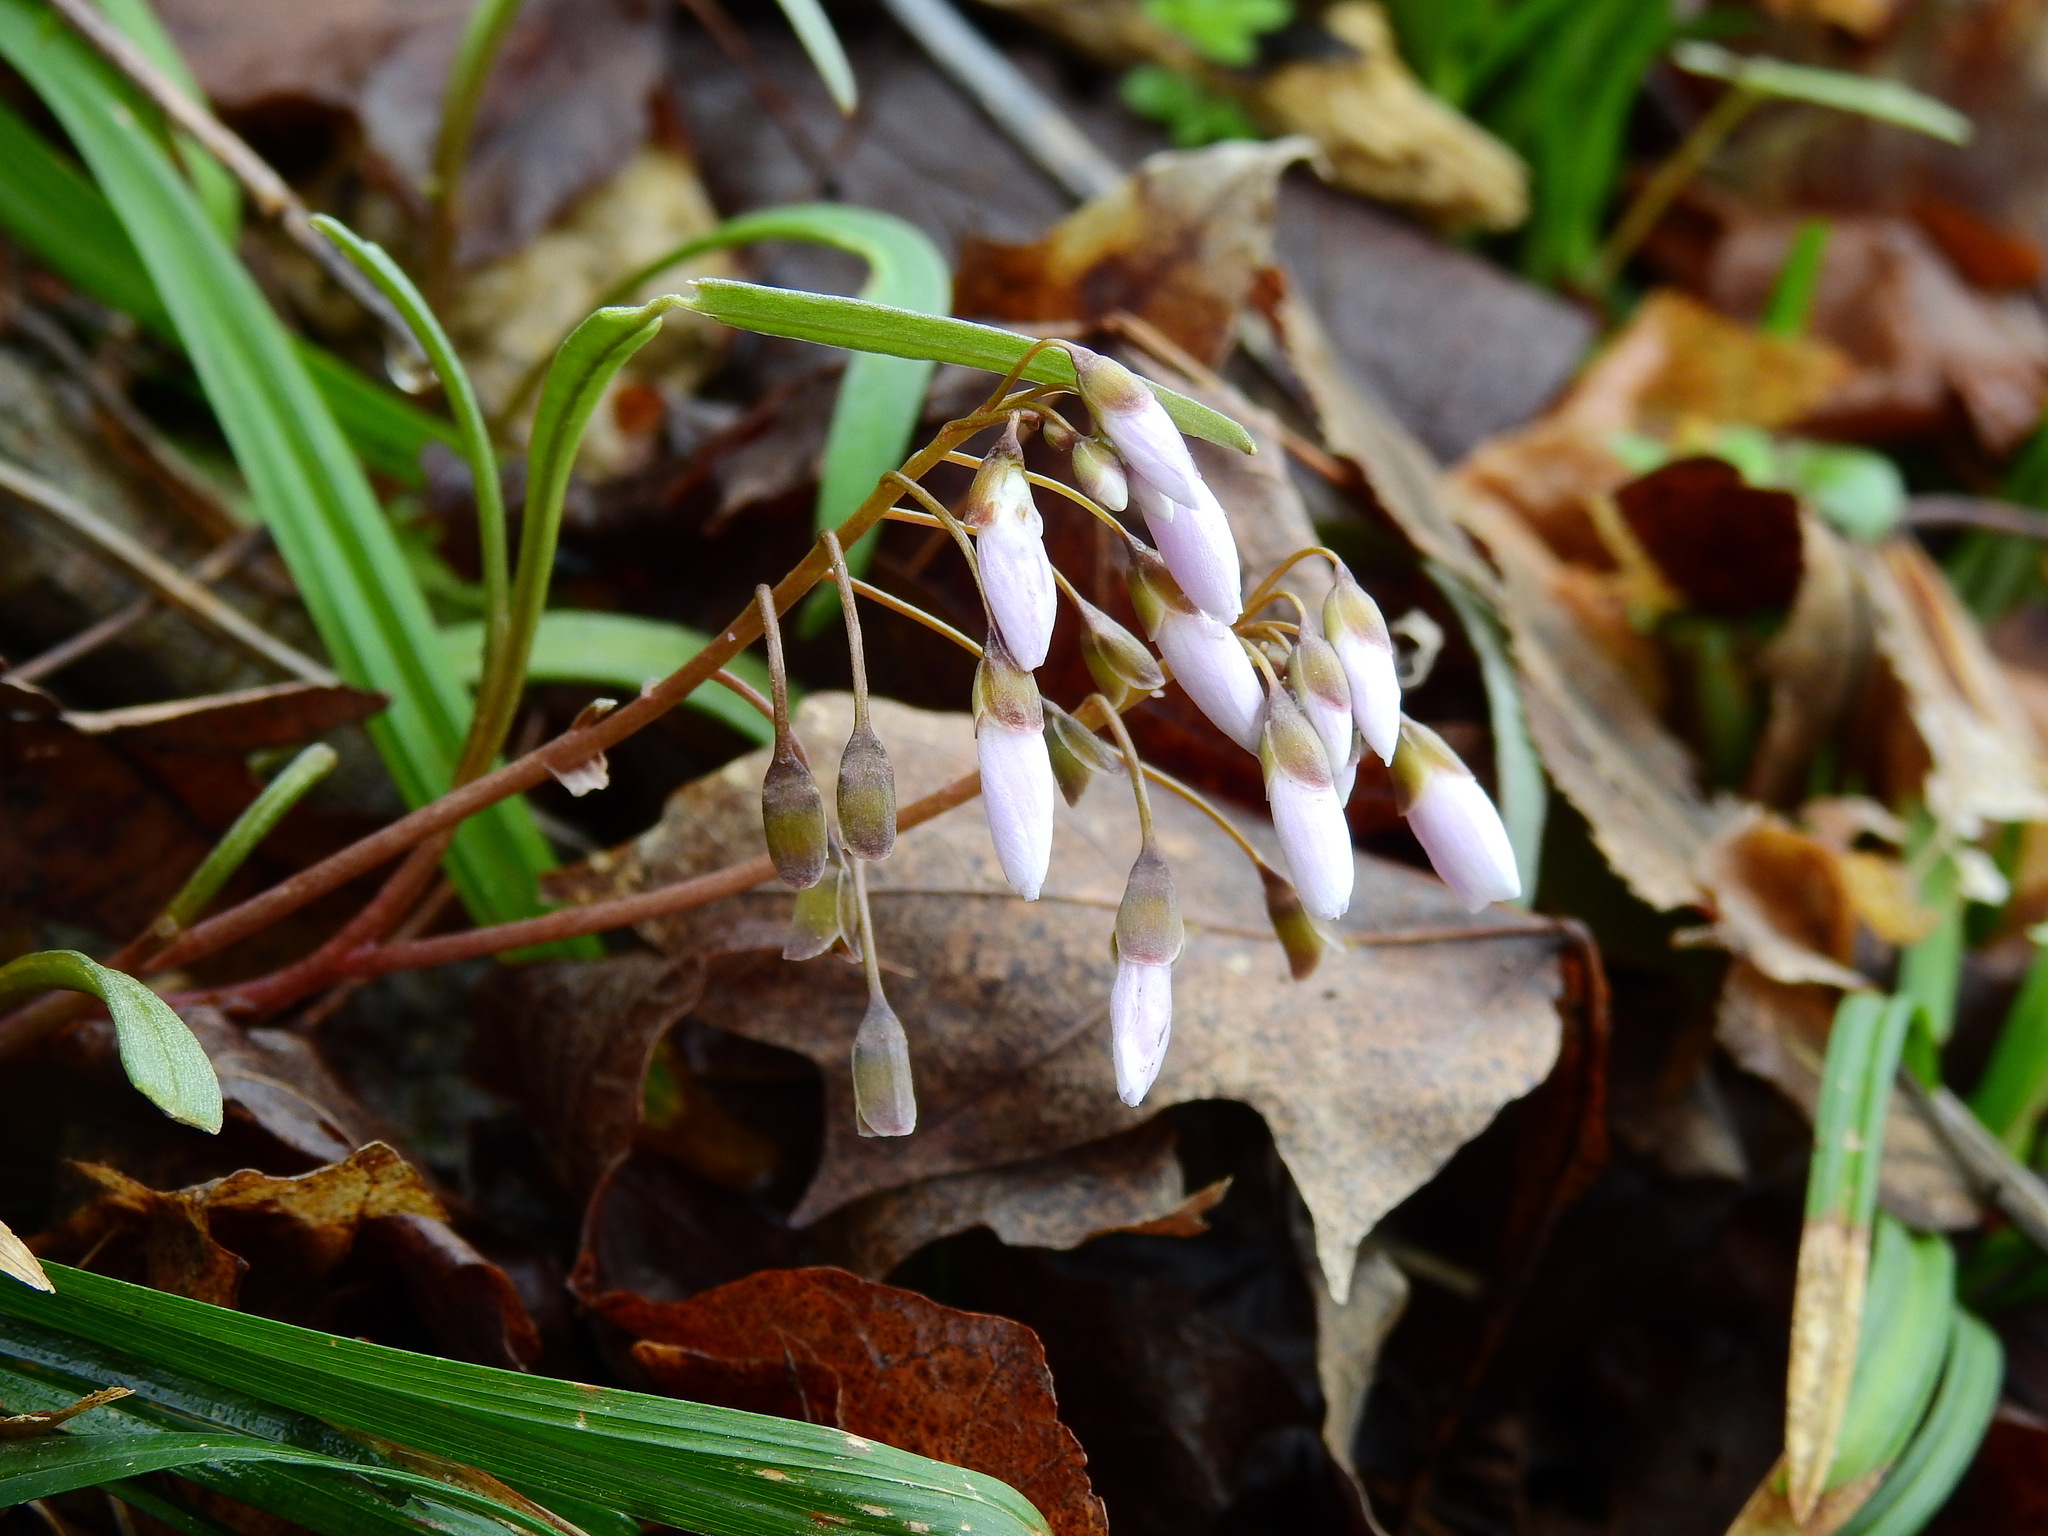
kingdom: Plantae
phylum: Tracheophyta
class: Magnoliopsida
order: Caryophyllales
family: Montiaceae
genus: Claytonia
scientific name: Claytonia virginica
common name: Virginia springbeauty
